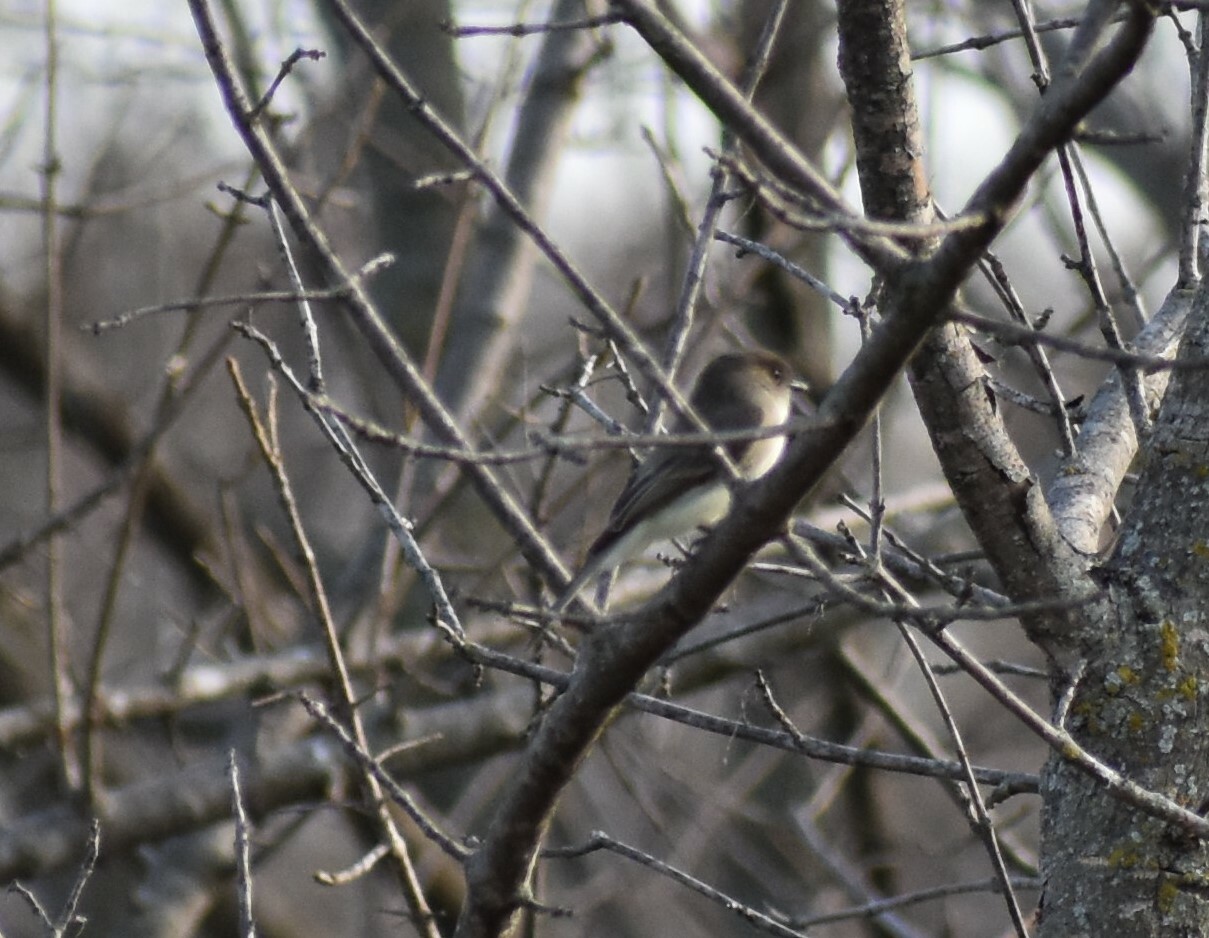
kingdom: Animalia
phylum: Chordata
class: Aves
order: Passeriformes
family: Tyrannidae
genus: Sayornis
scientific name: Sayornis phoebe
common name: Eastern phoebe
